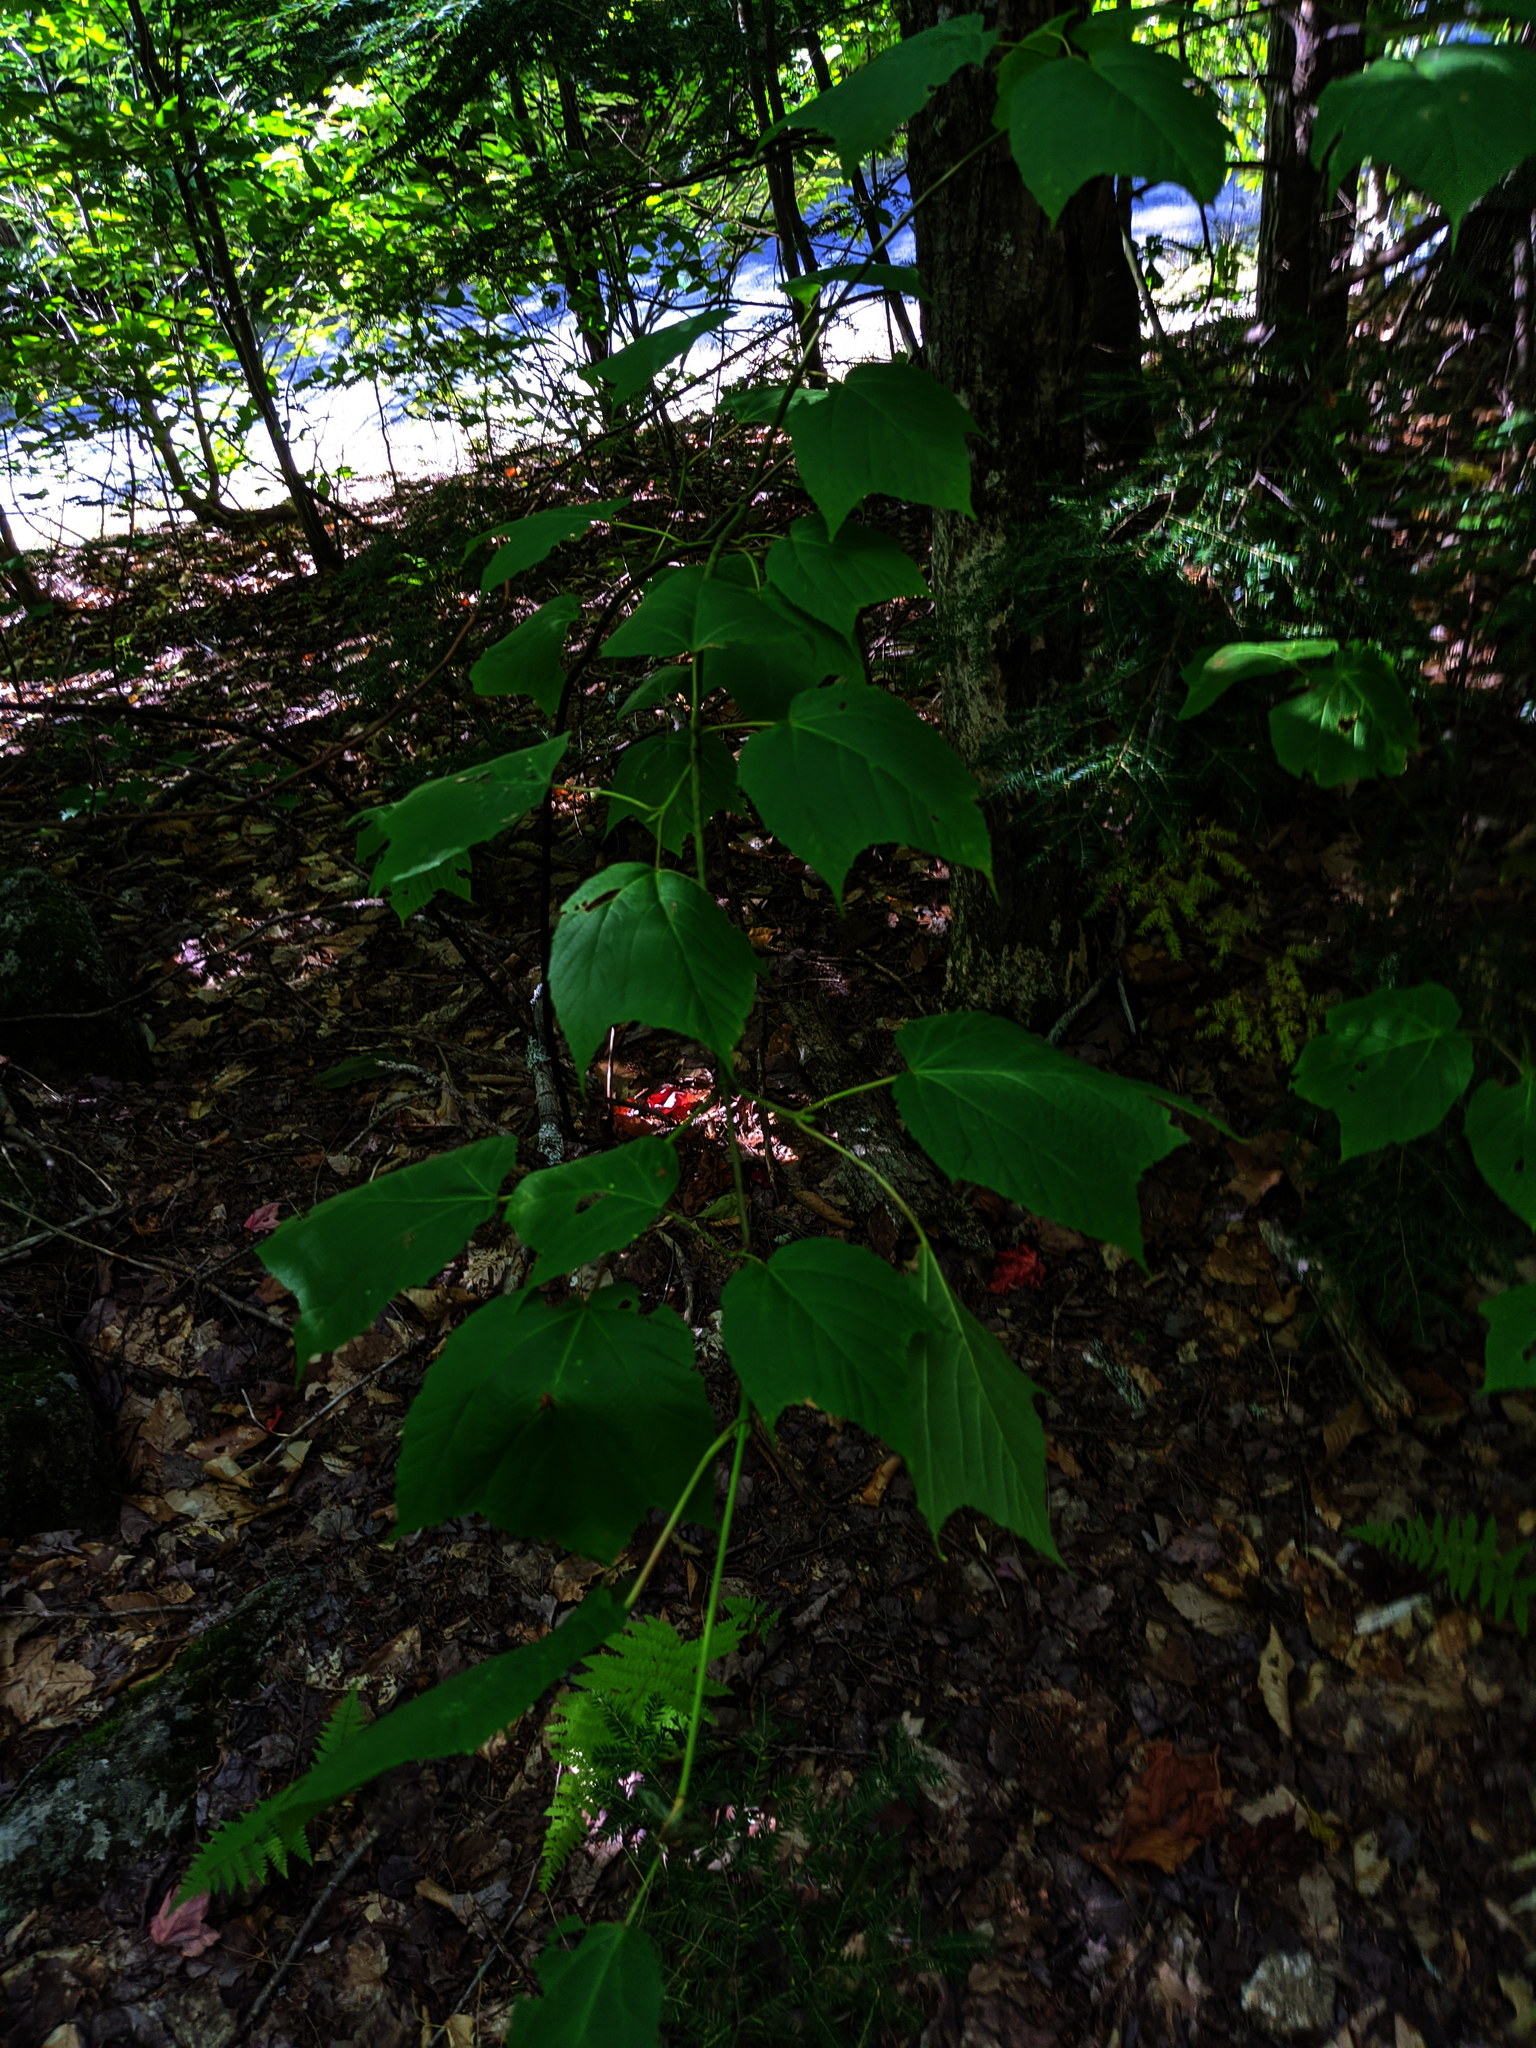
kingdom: Plantae
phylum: Tracheophyta
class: Magnoliopsida
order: Sapindales
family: Sapindaceae
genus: Acer
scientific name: Acer pensylvanicum
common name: Moosewood
